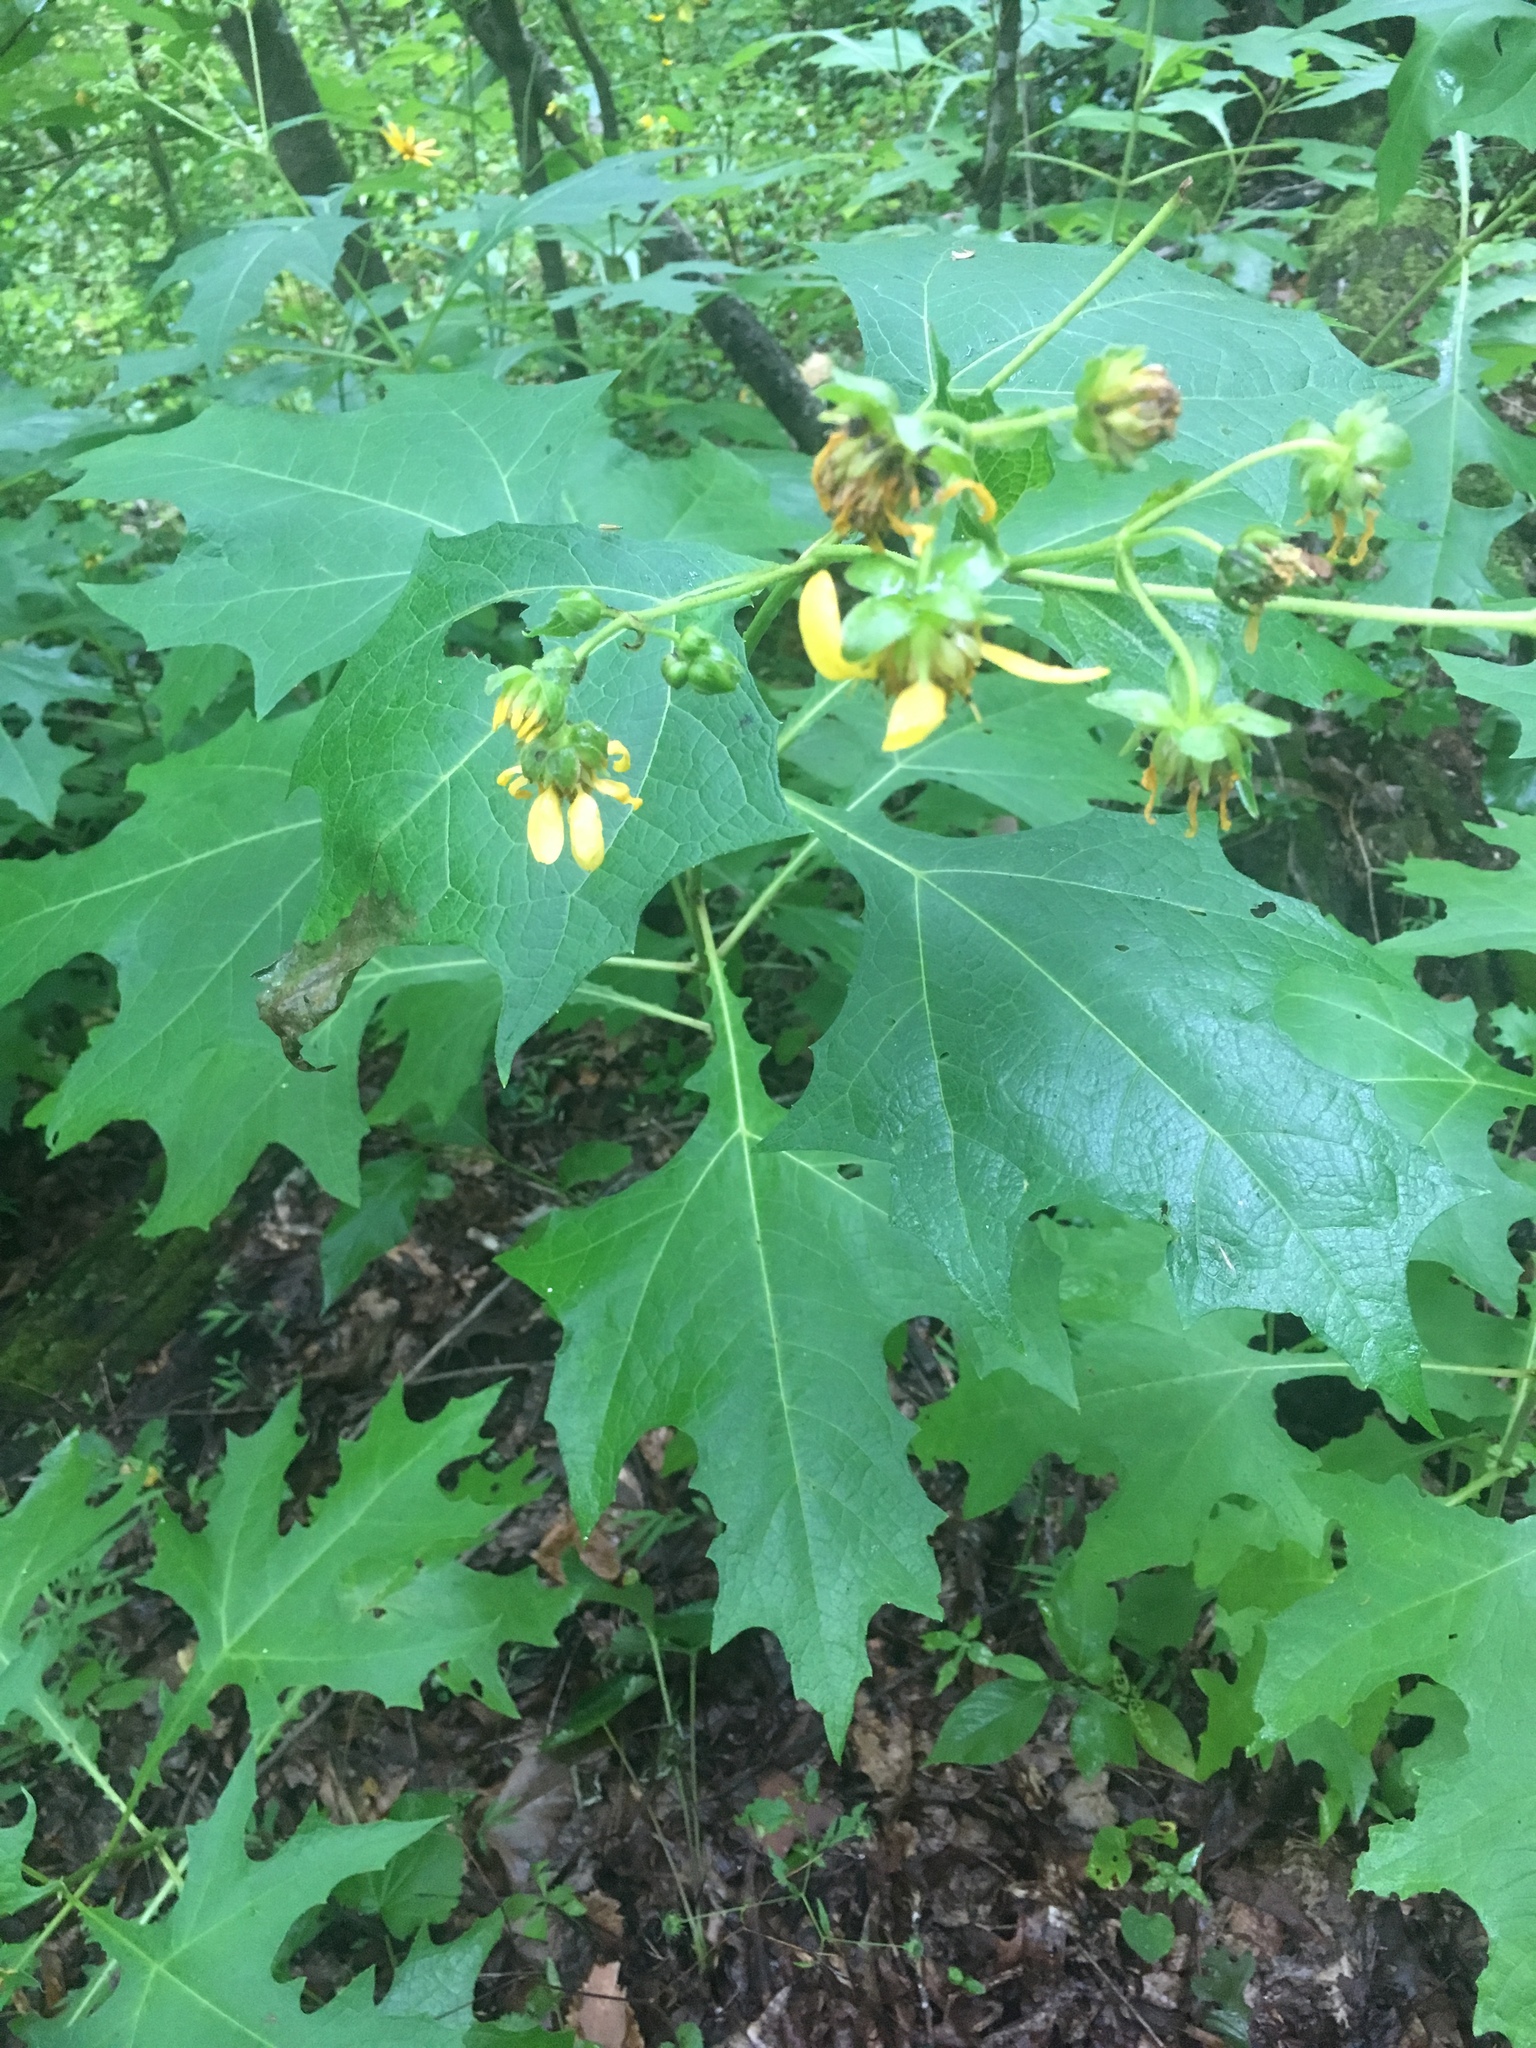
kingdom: Plantae
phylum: Tracheophyta
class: Magnoliopsida
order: Asterales
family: Asteraceae
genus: Smallanthus
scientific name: Smallanthus uvedalia
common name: Bear's-foot
